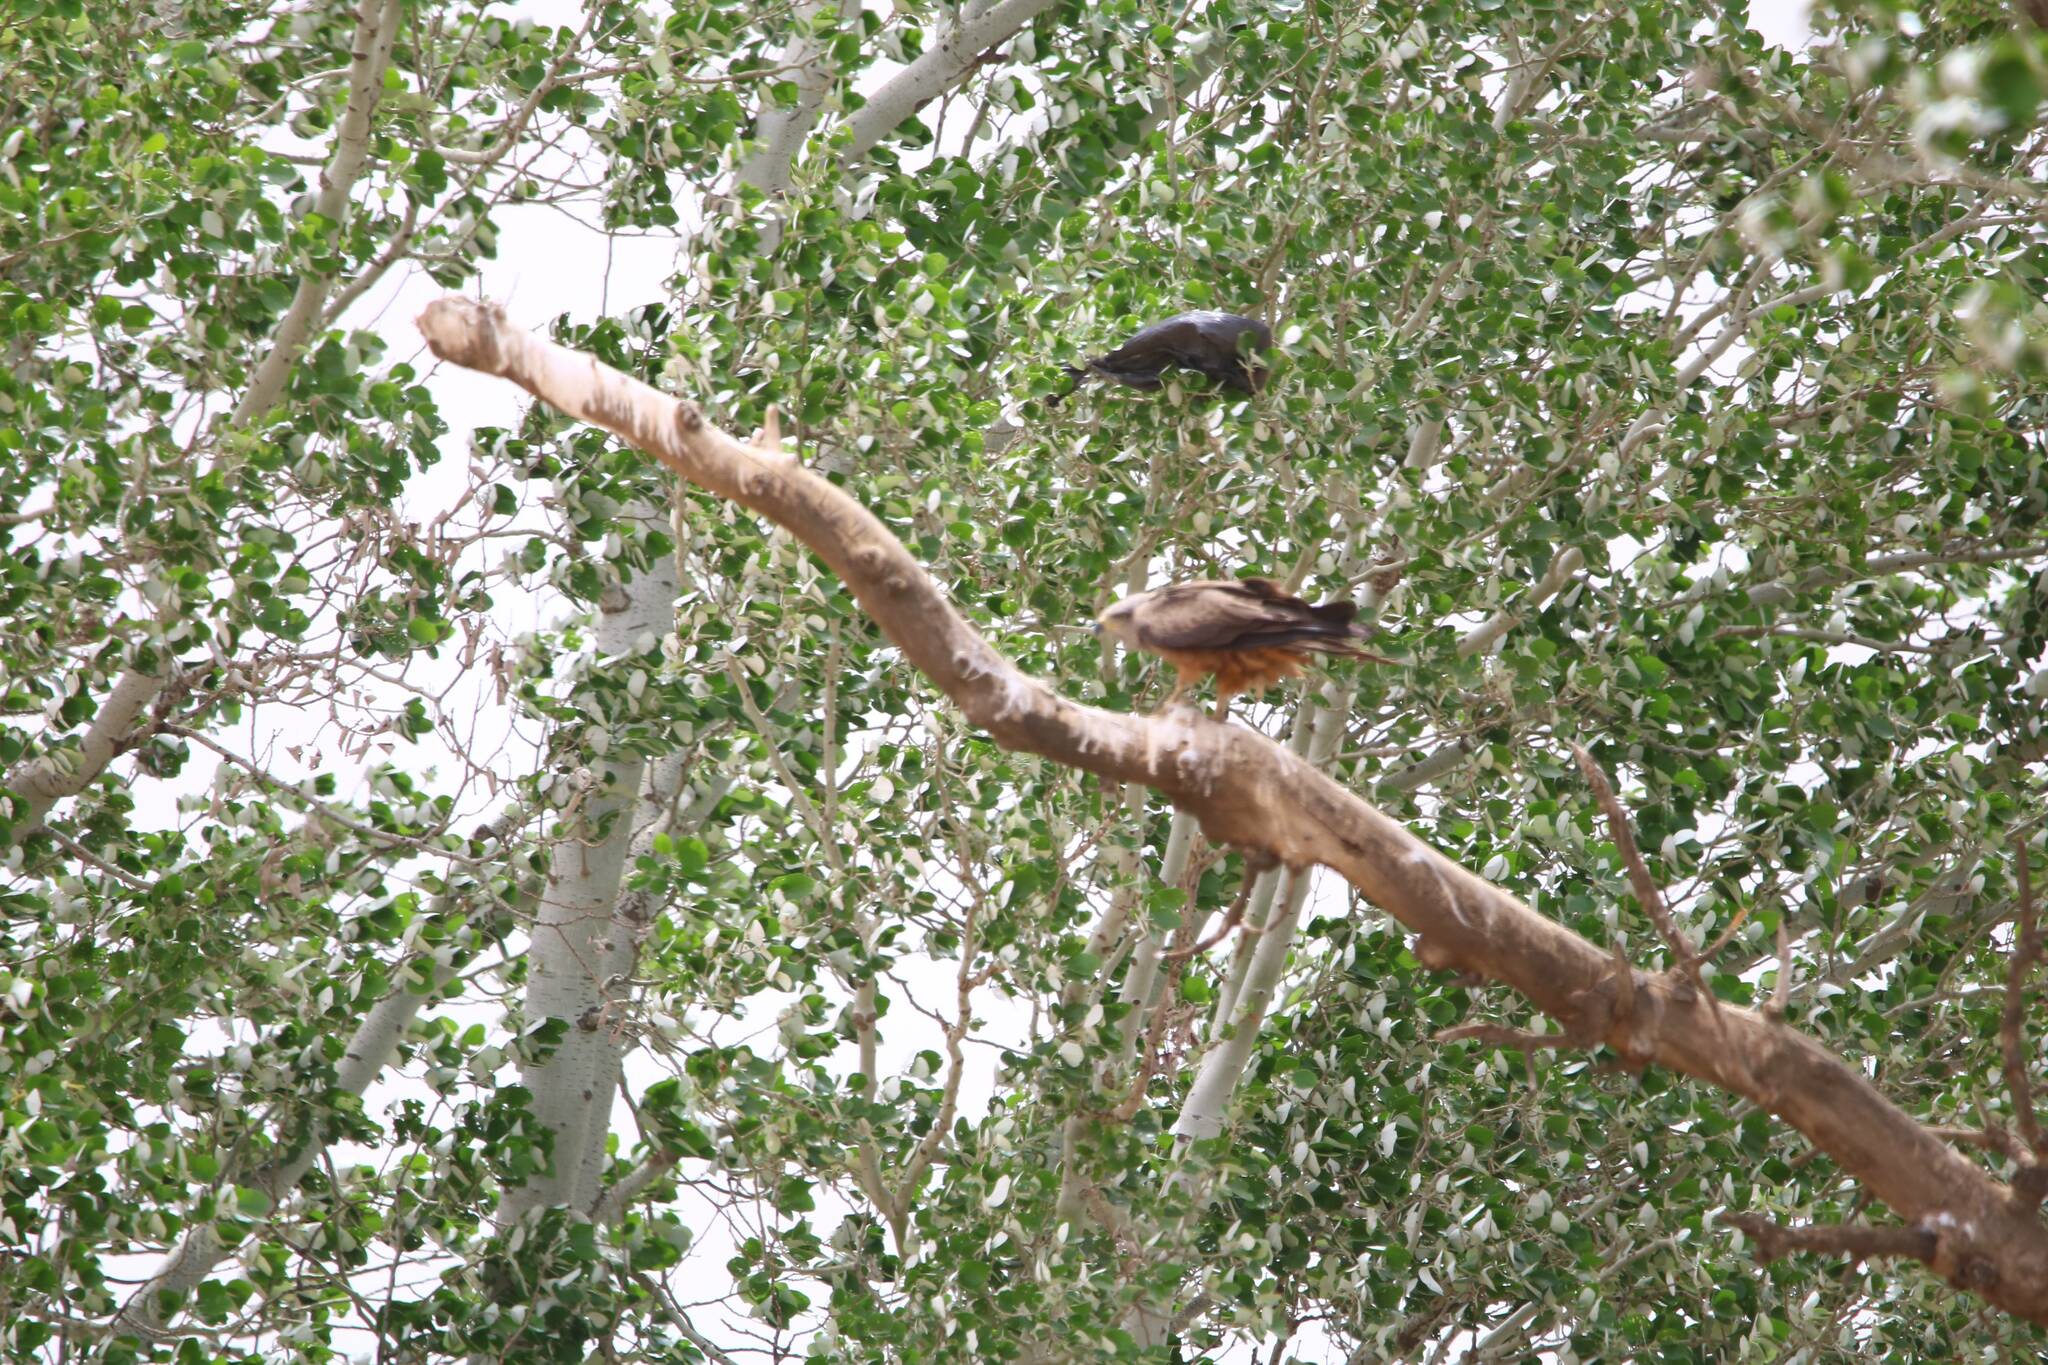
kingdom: Animalia
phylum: Chordata
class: Aves
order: Accipitriformes
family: Accipitridae
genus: Milvus
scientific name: Milvus migrans
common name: Black kite
